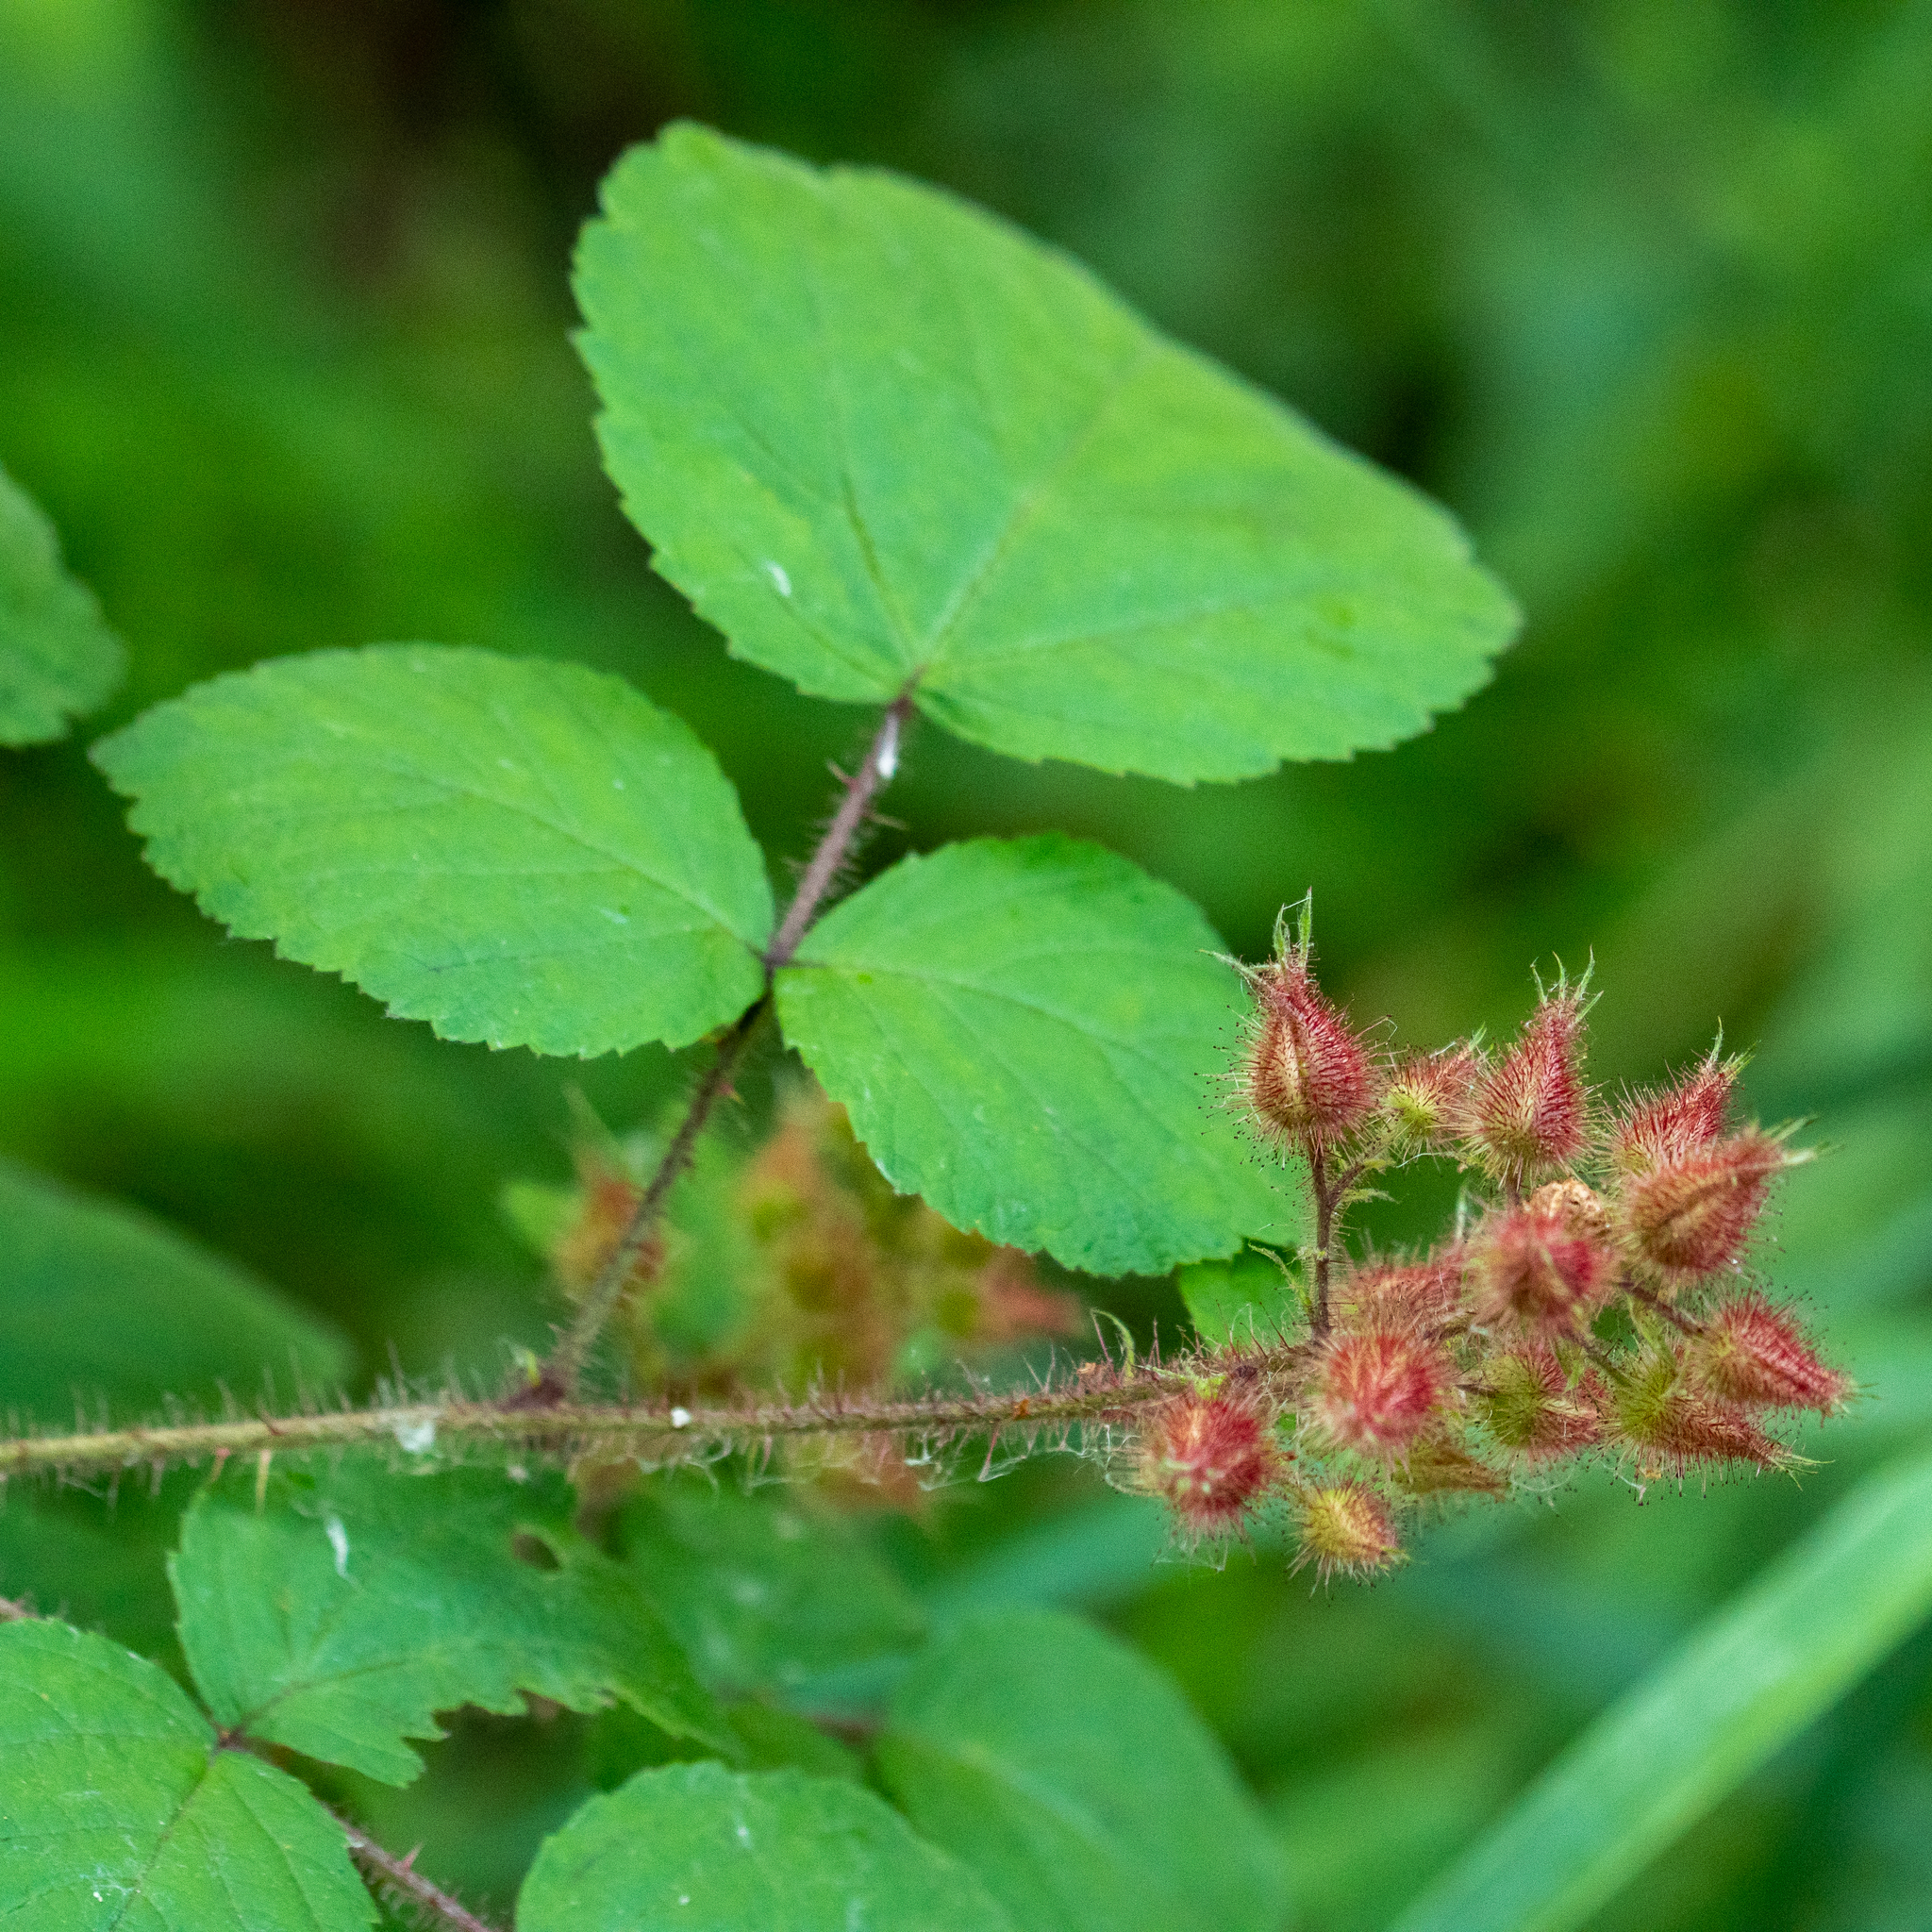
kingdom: Plantae
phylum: Tracheophyta
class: Magnoliopsida
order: Rosales
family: Rosaceae
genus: Rubus
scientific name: Rubus phoenicolasius
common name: Japanese wineberry
